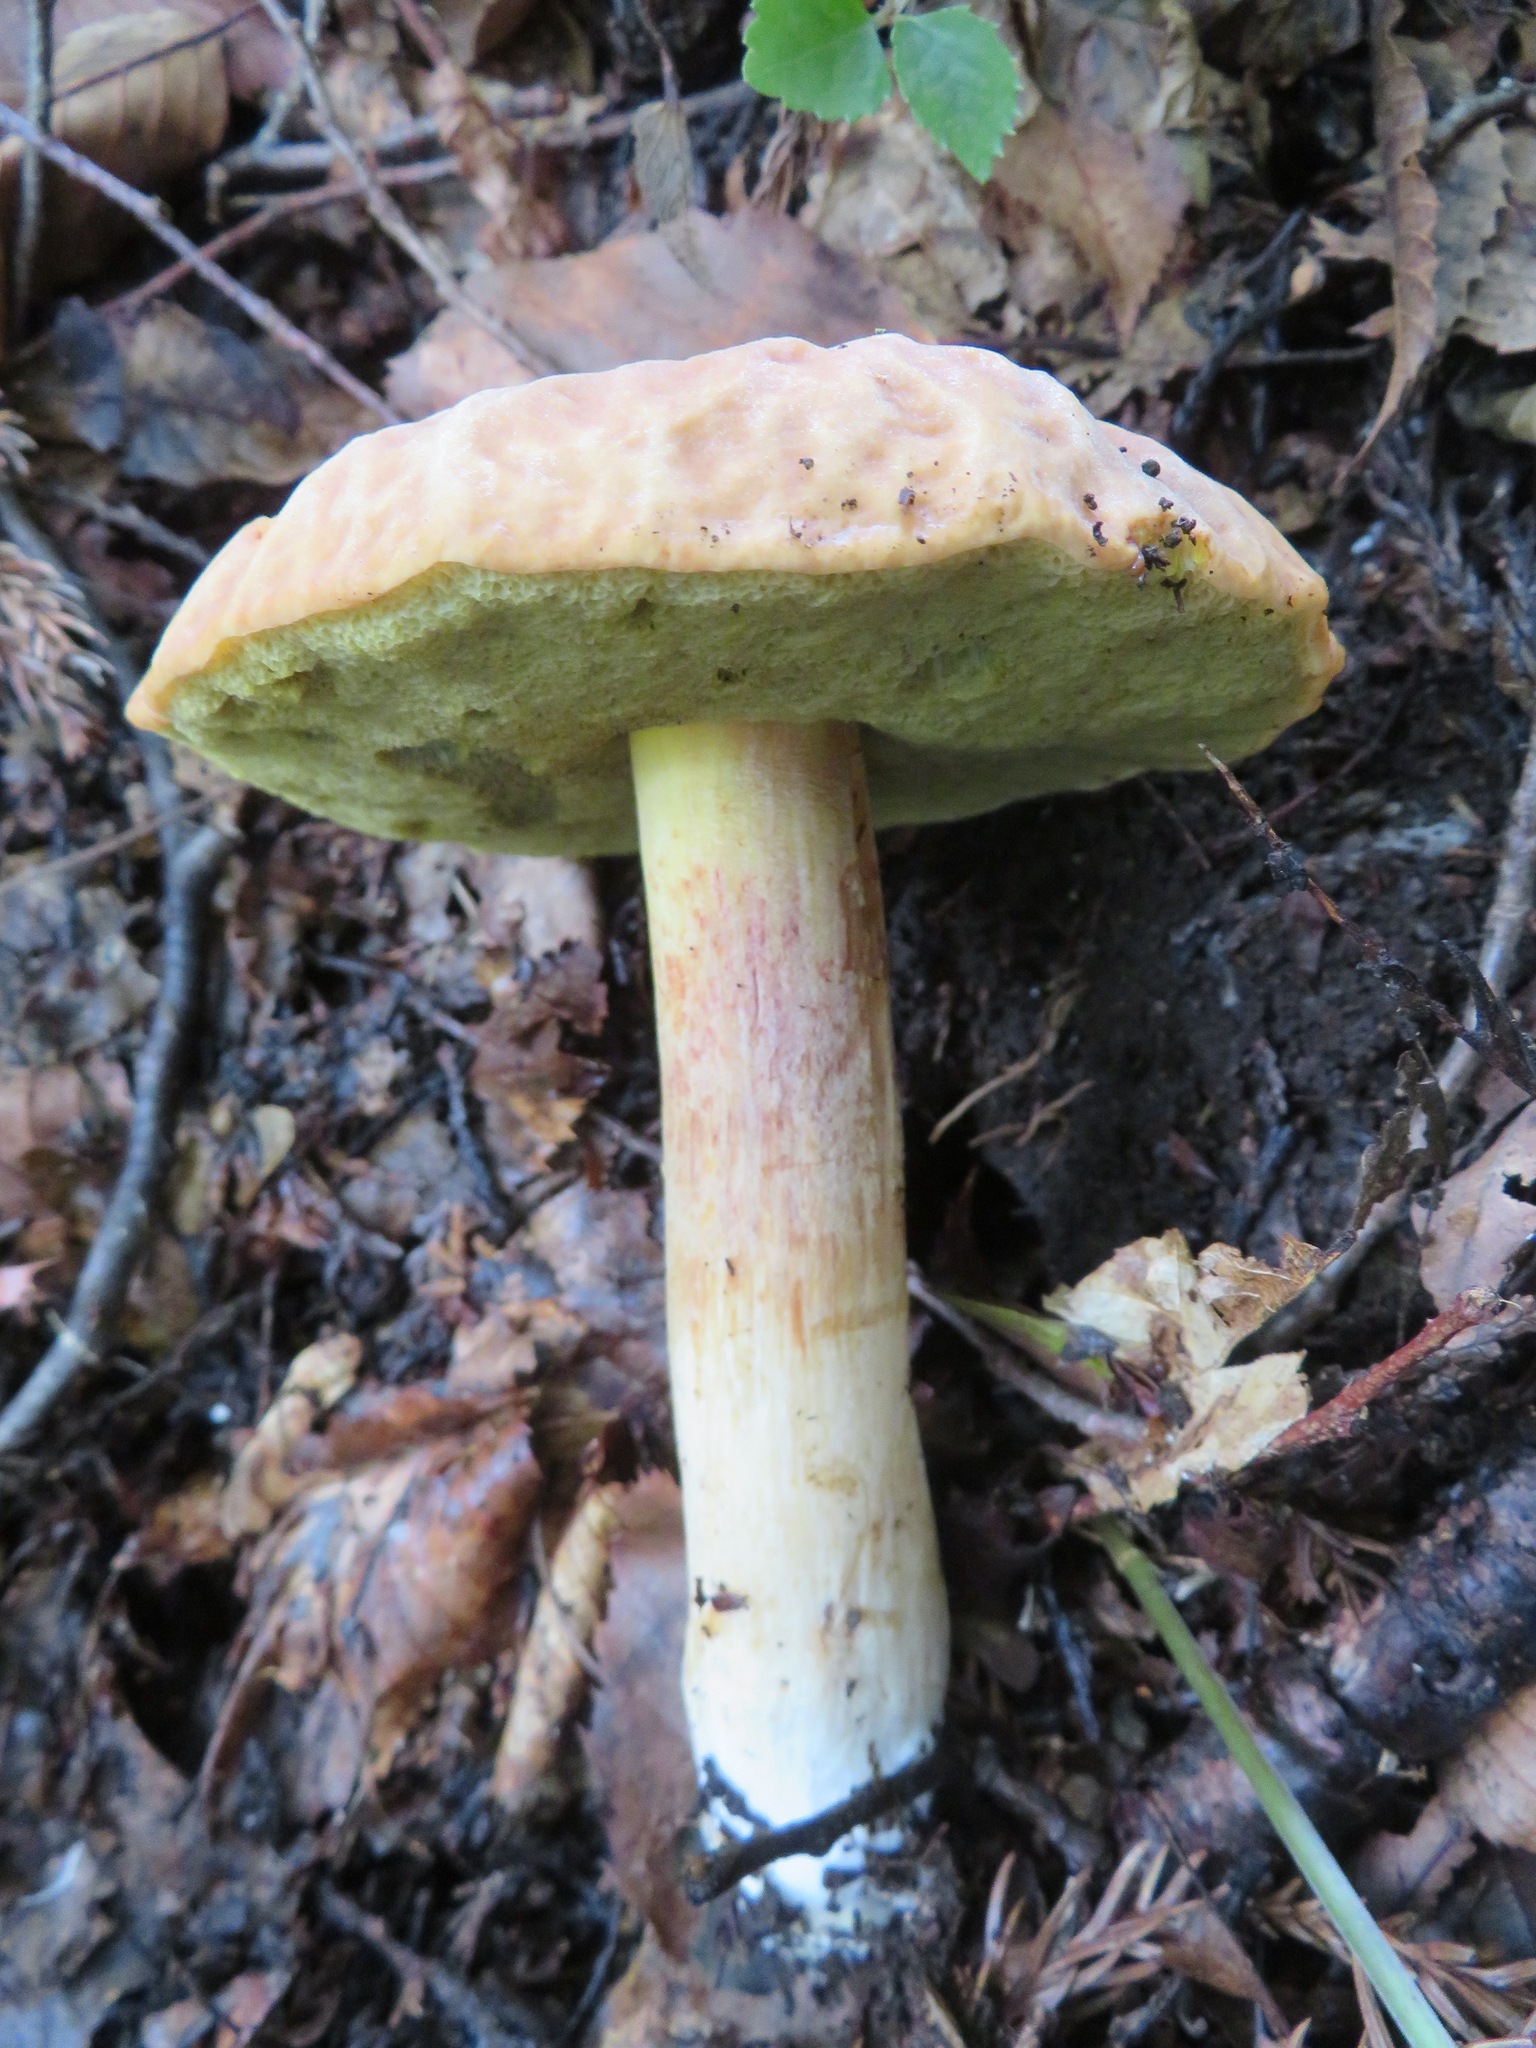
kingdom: Fungi
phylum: Basidiomycota
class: Agaricomycetes
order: Boletales
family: Boletaceae
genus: Hemileccinum
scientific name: Hemileccinum hortonii
